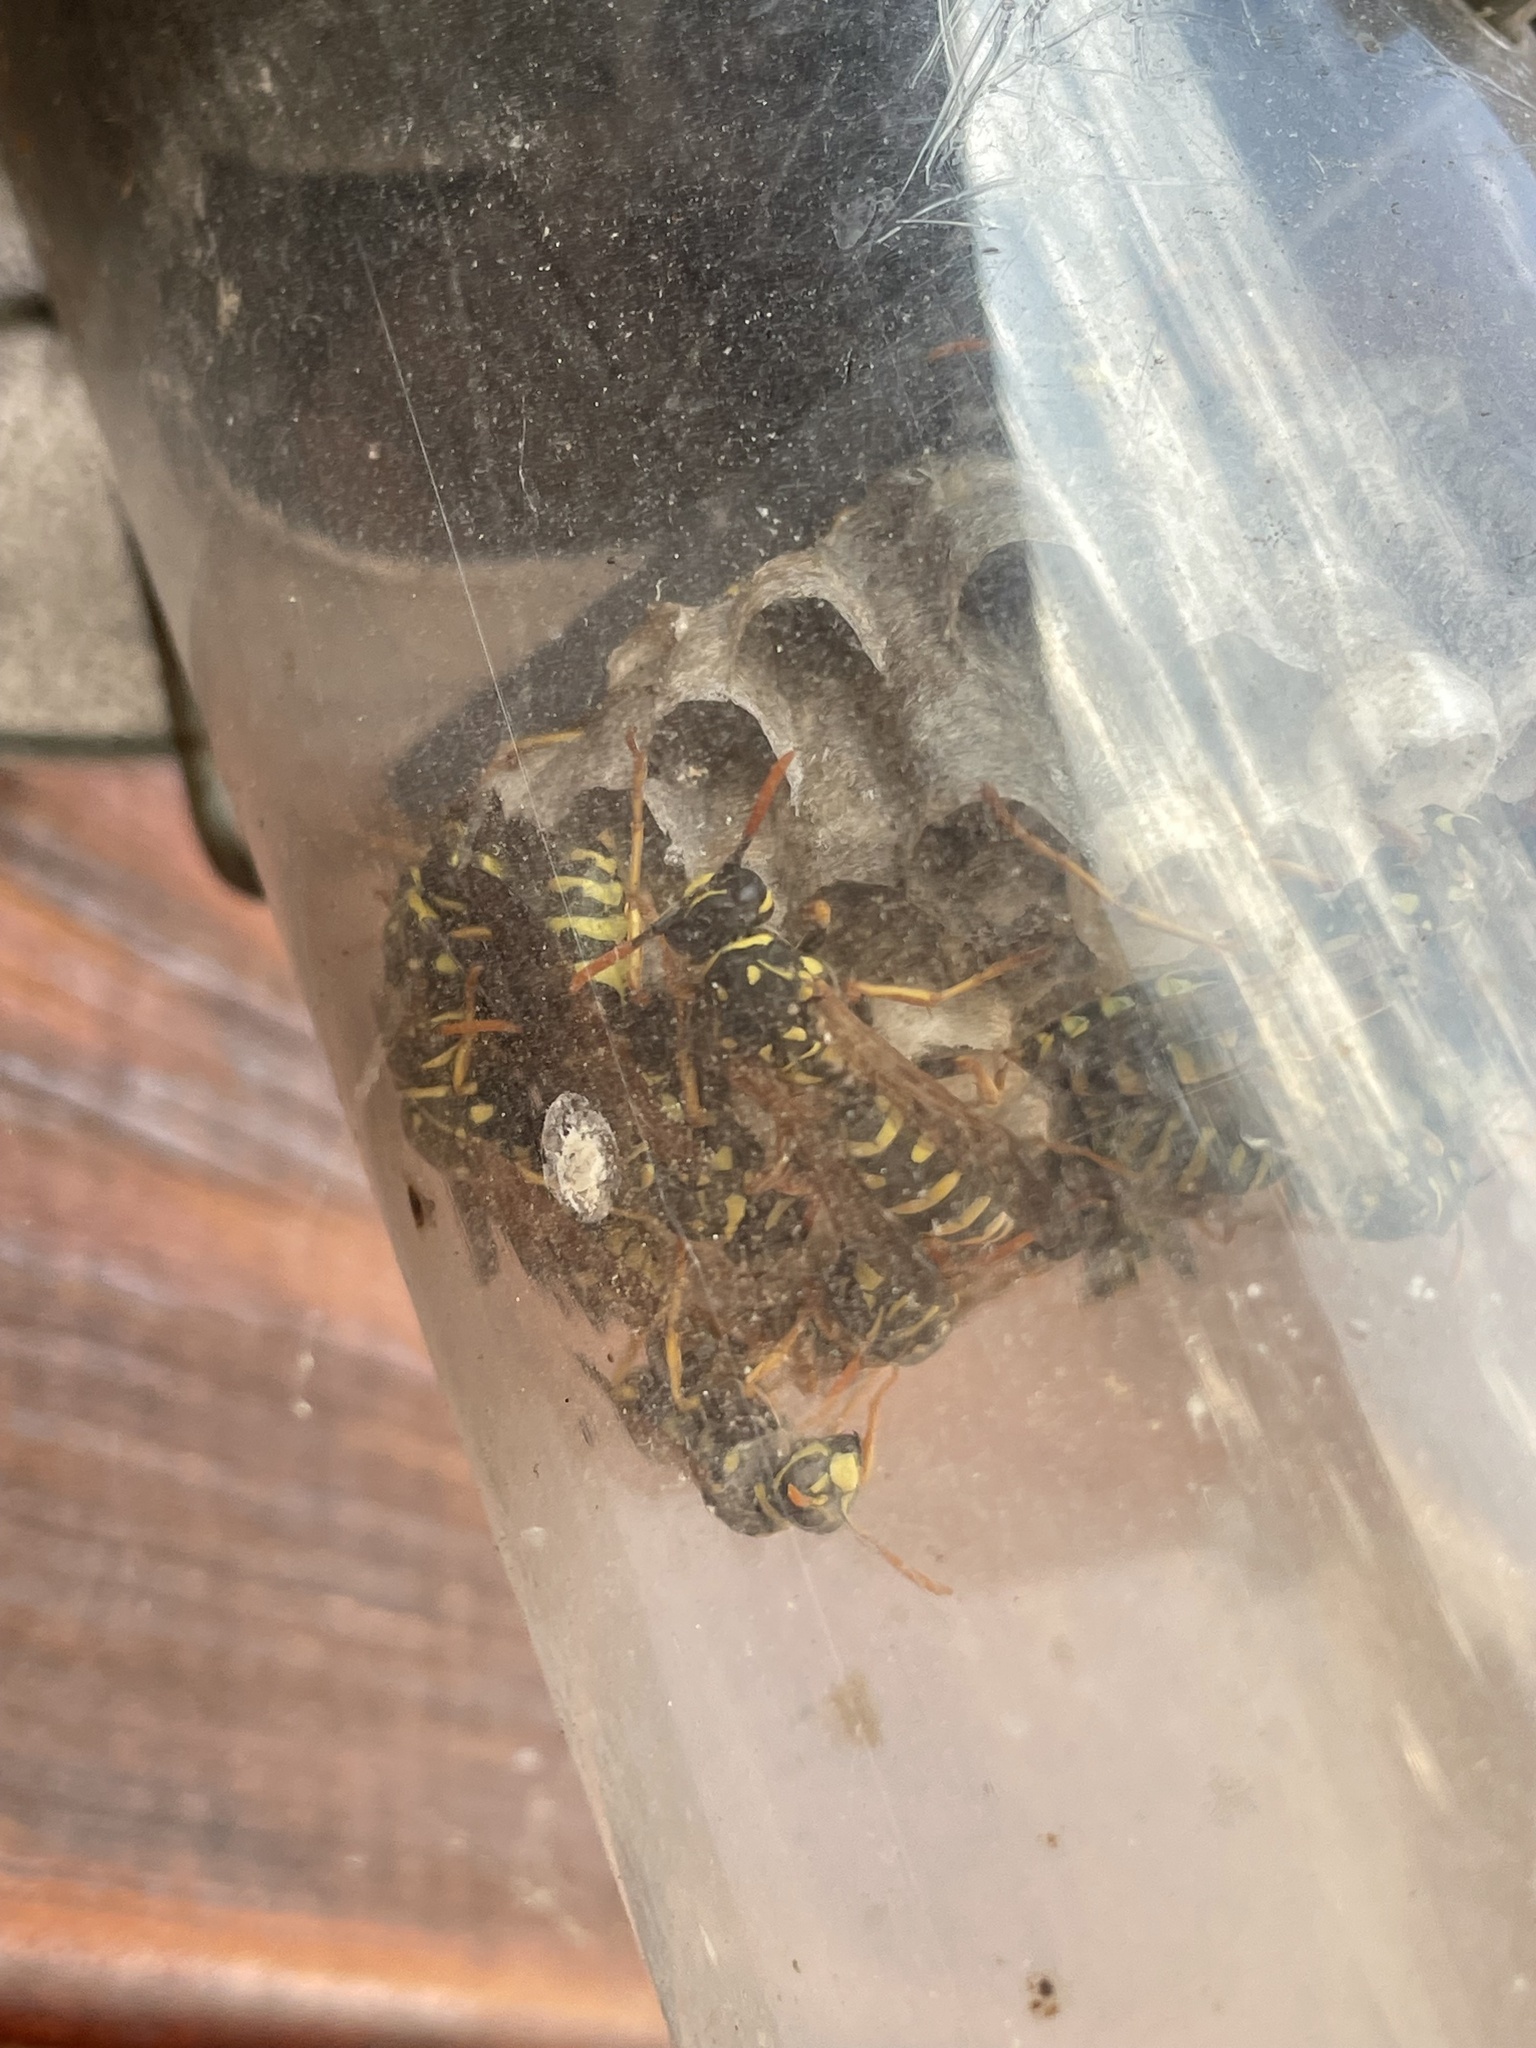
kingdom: Animalia
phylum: Arthropoda
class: Insecta
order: Hymenoptera
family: Eumenidae
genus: Polistes
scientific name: Polistes dominula
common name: Paper wasp
